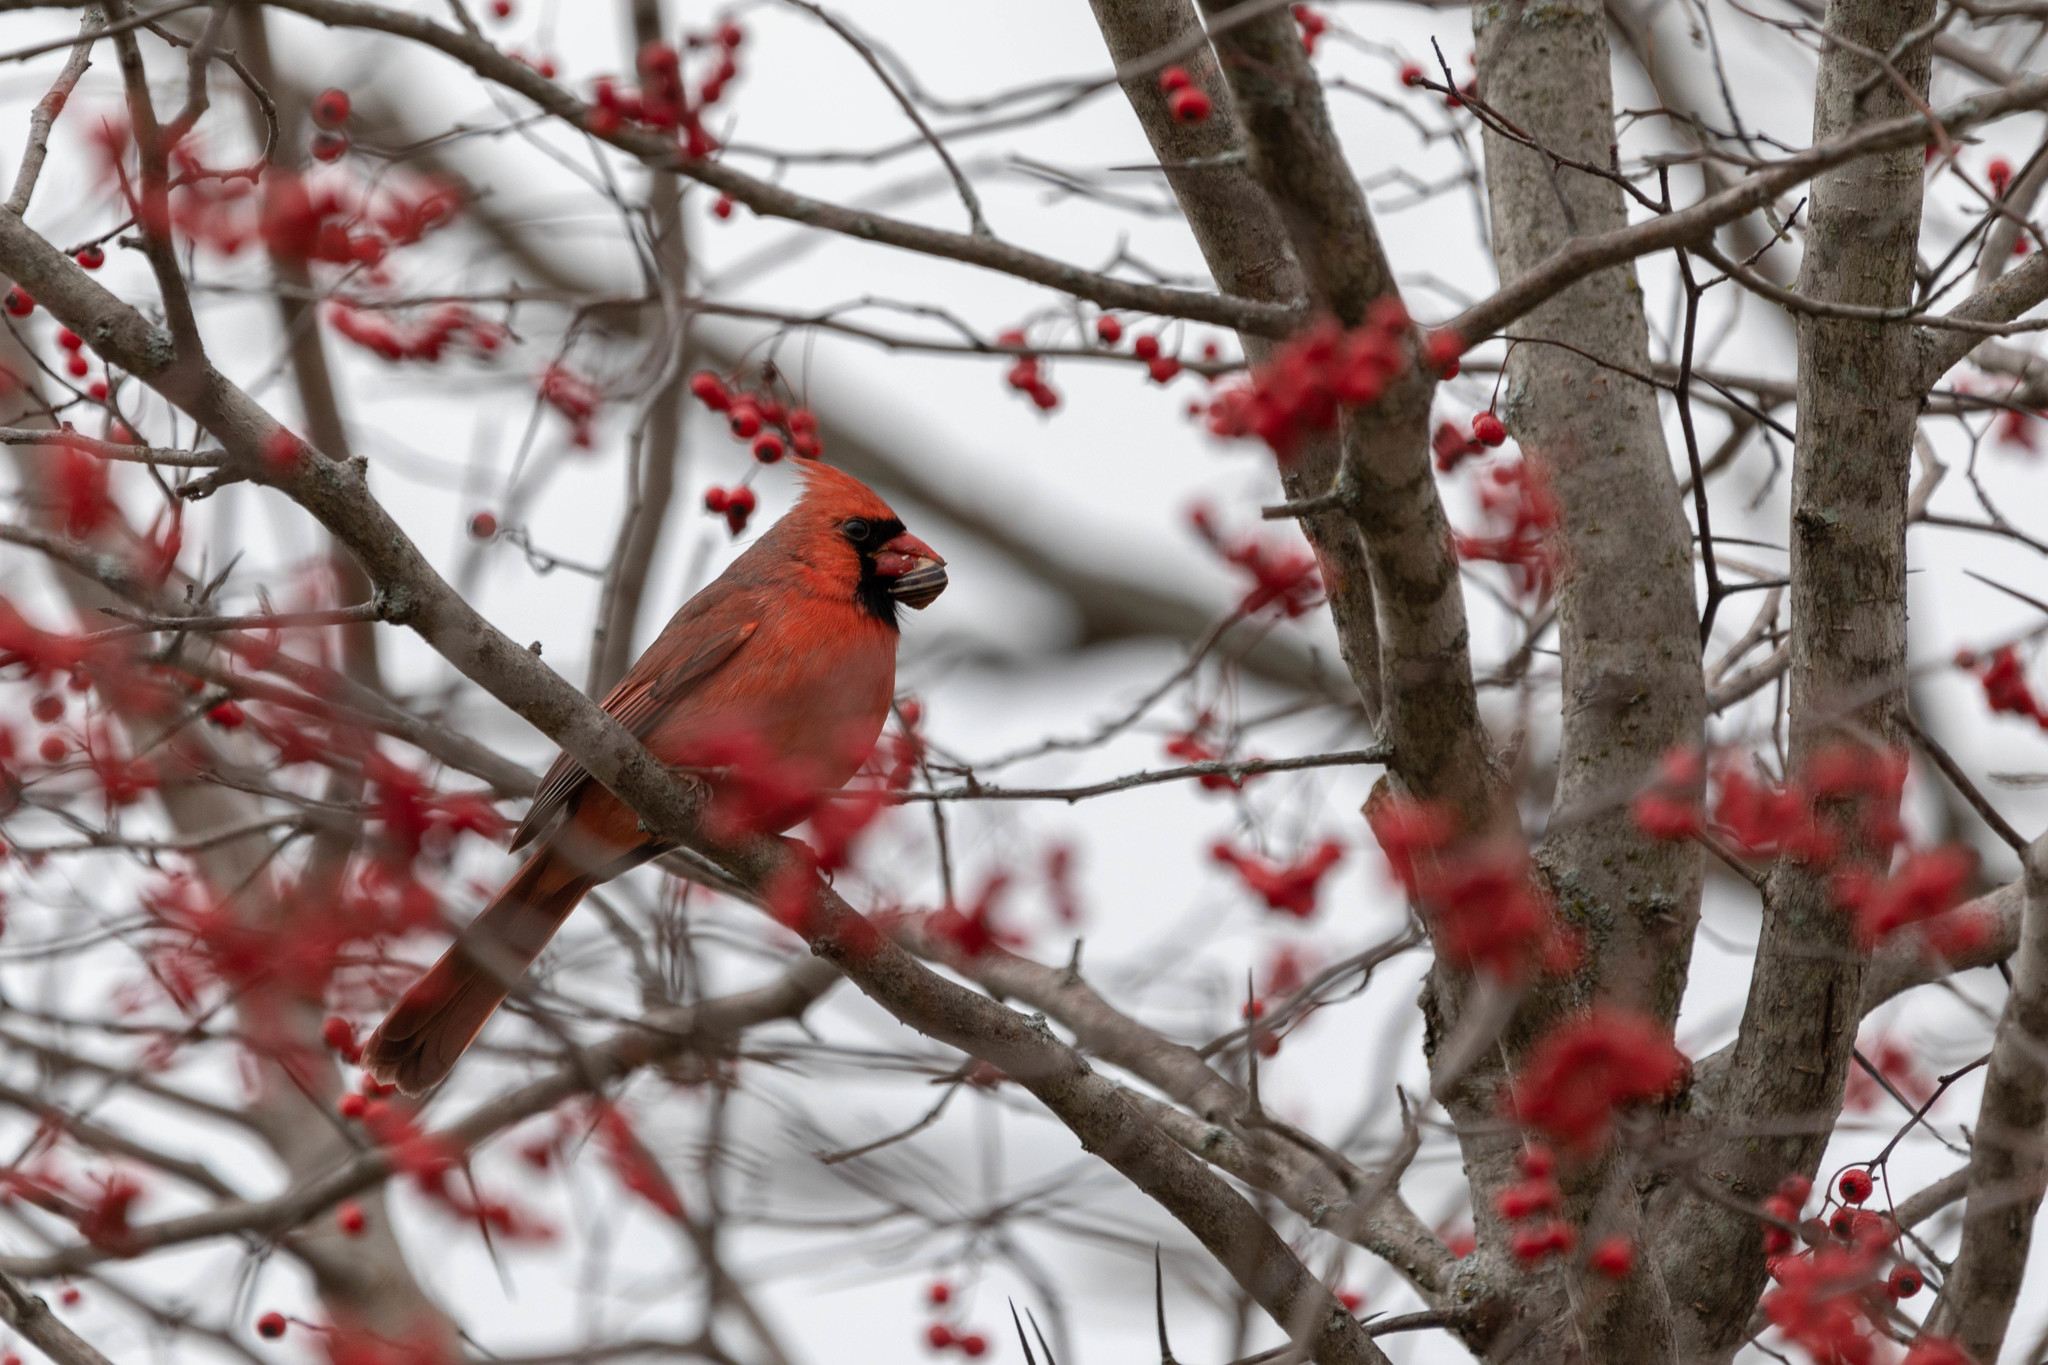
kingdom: Animalia
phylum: Chordata
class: Aves
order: Passeriformes
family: Cardinalidae
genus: Cardinalis
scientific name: Cardinalis cardinalis
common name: Northern cardinal
